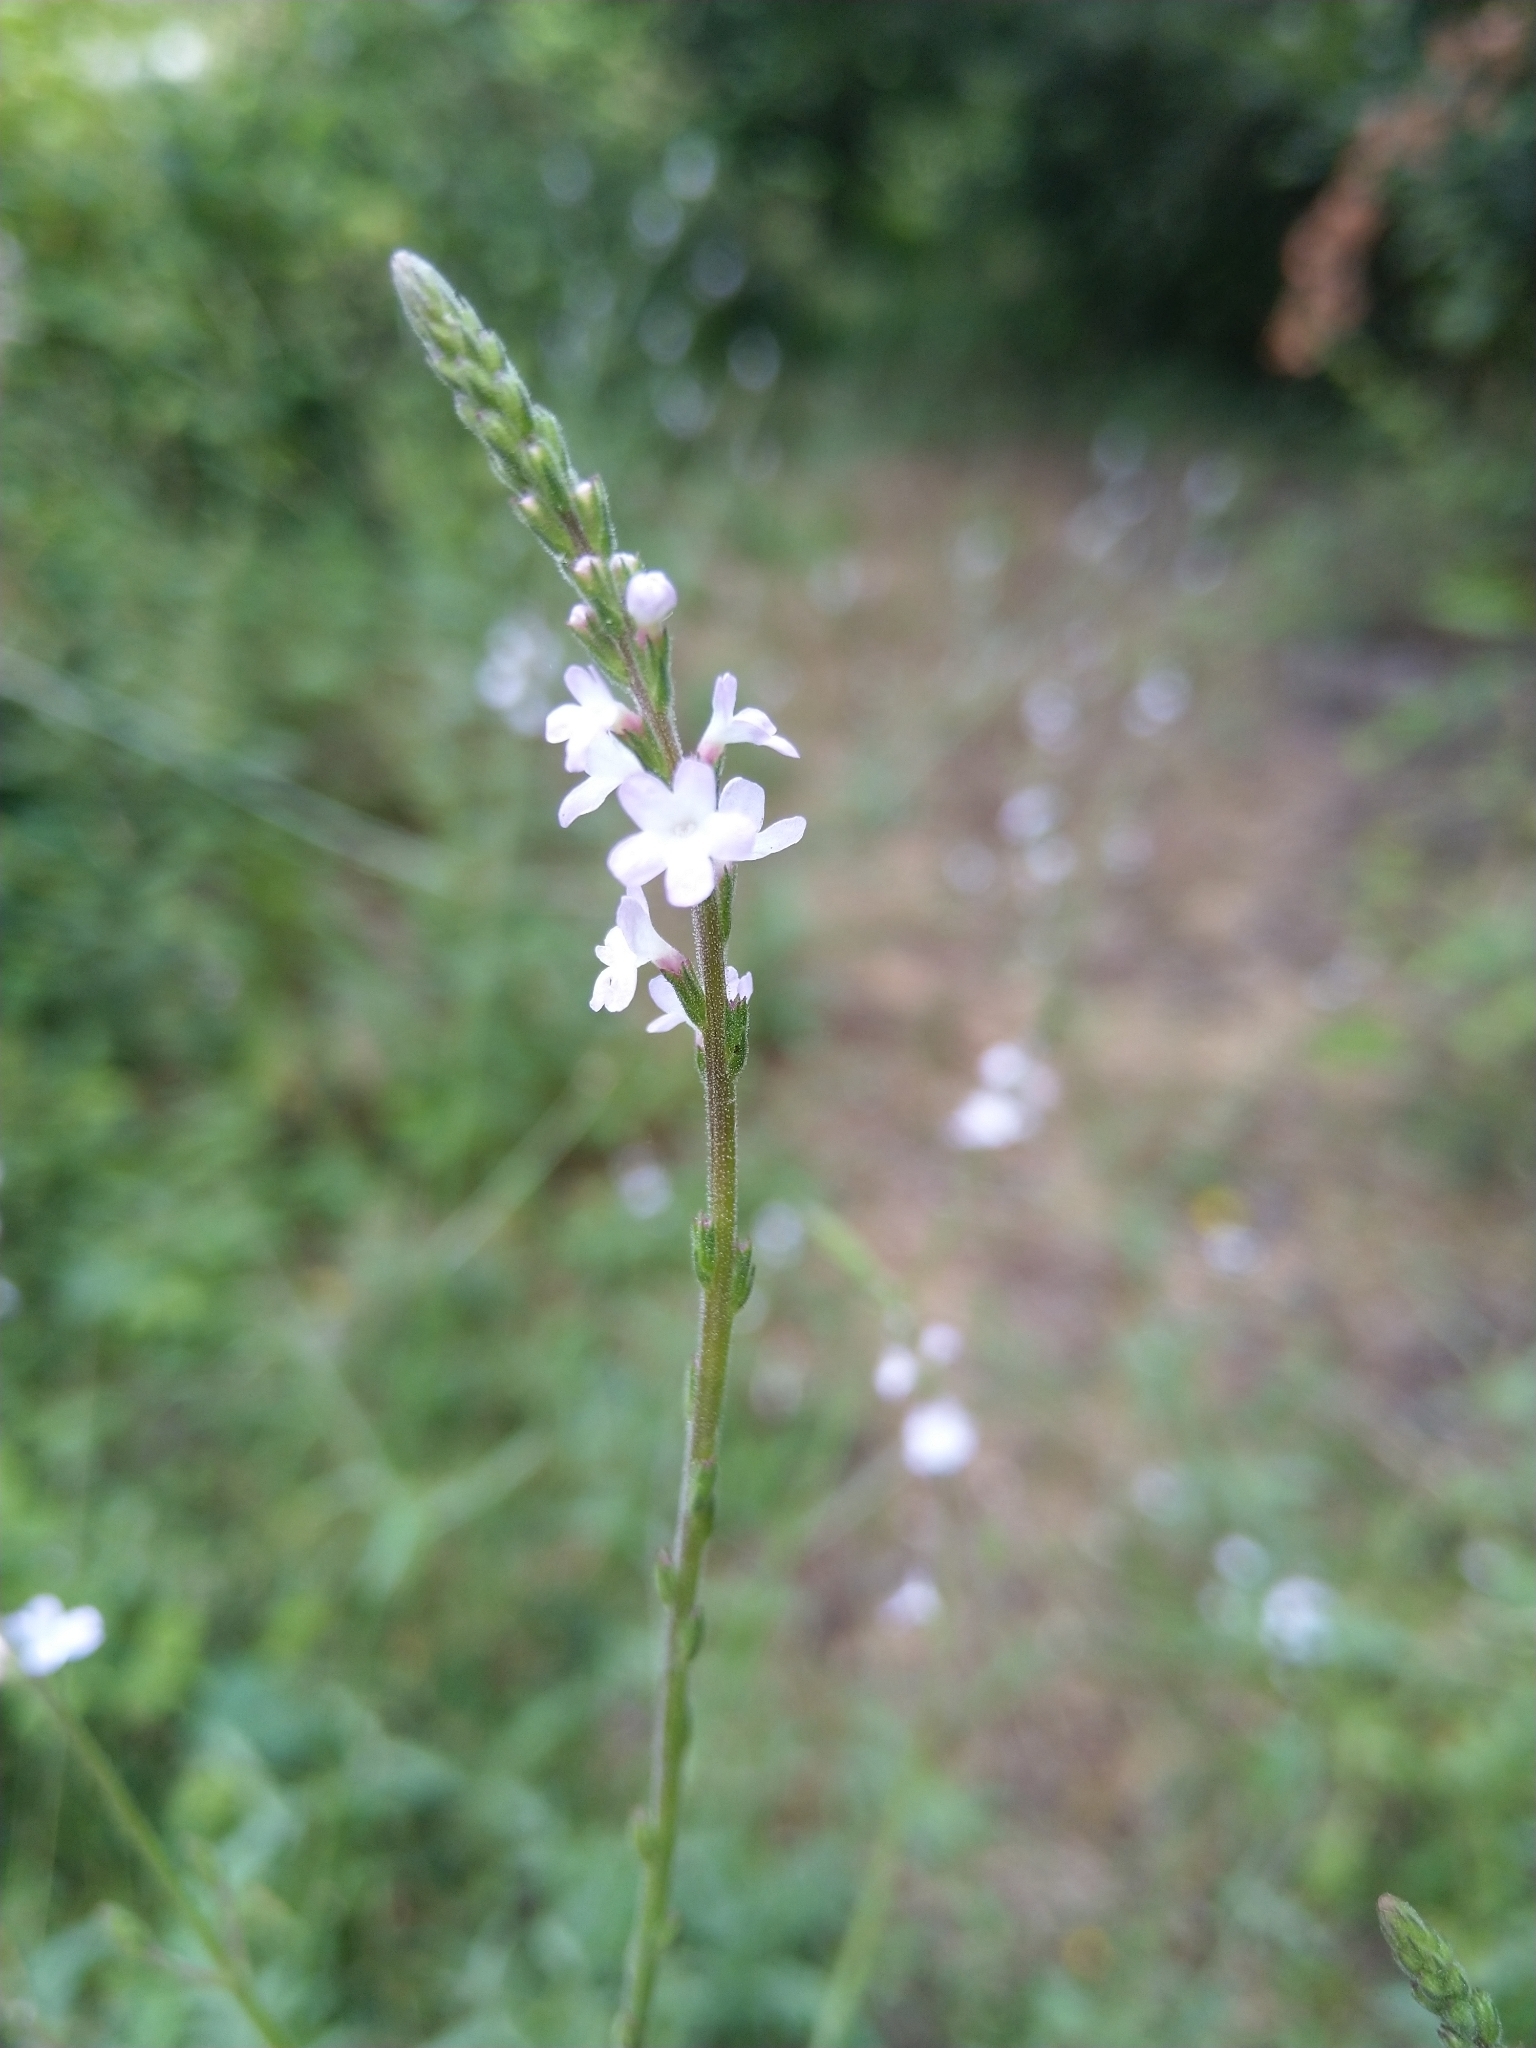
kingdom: Plantae
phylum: Tracheophyta
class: Magnoliopsida
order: Lamiales
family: Verbenaceae
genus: Verbena
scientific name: Verbena officinalis
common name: Vervain
